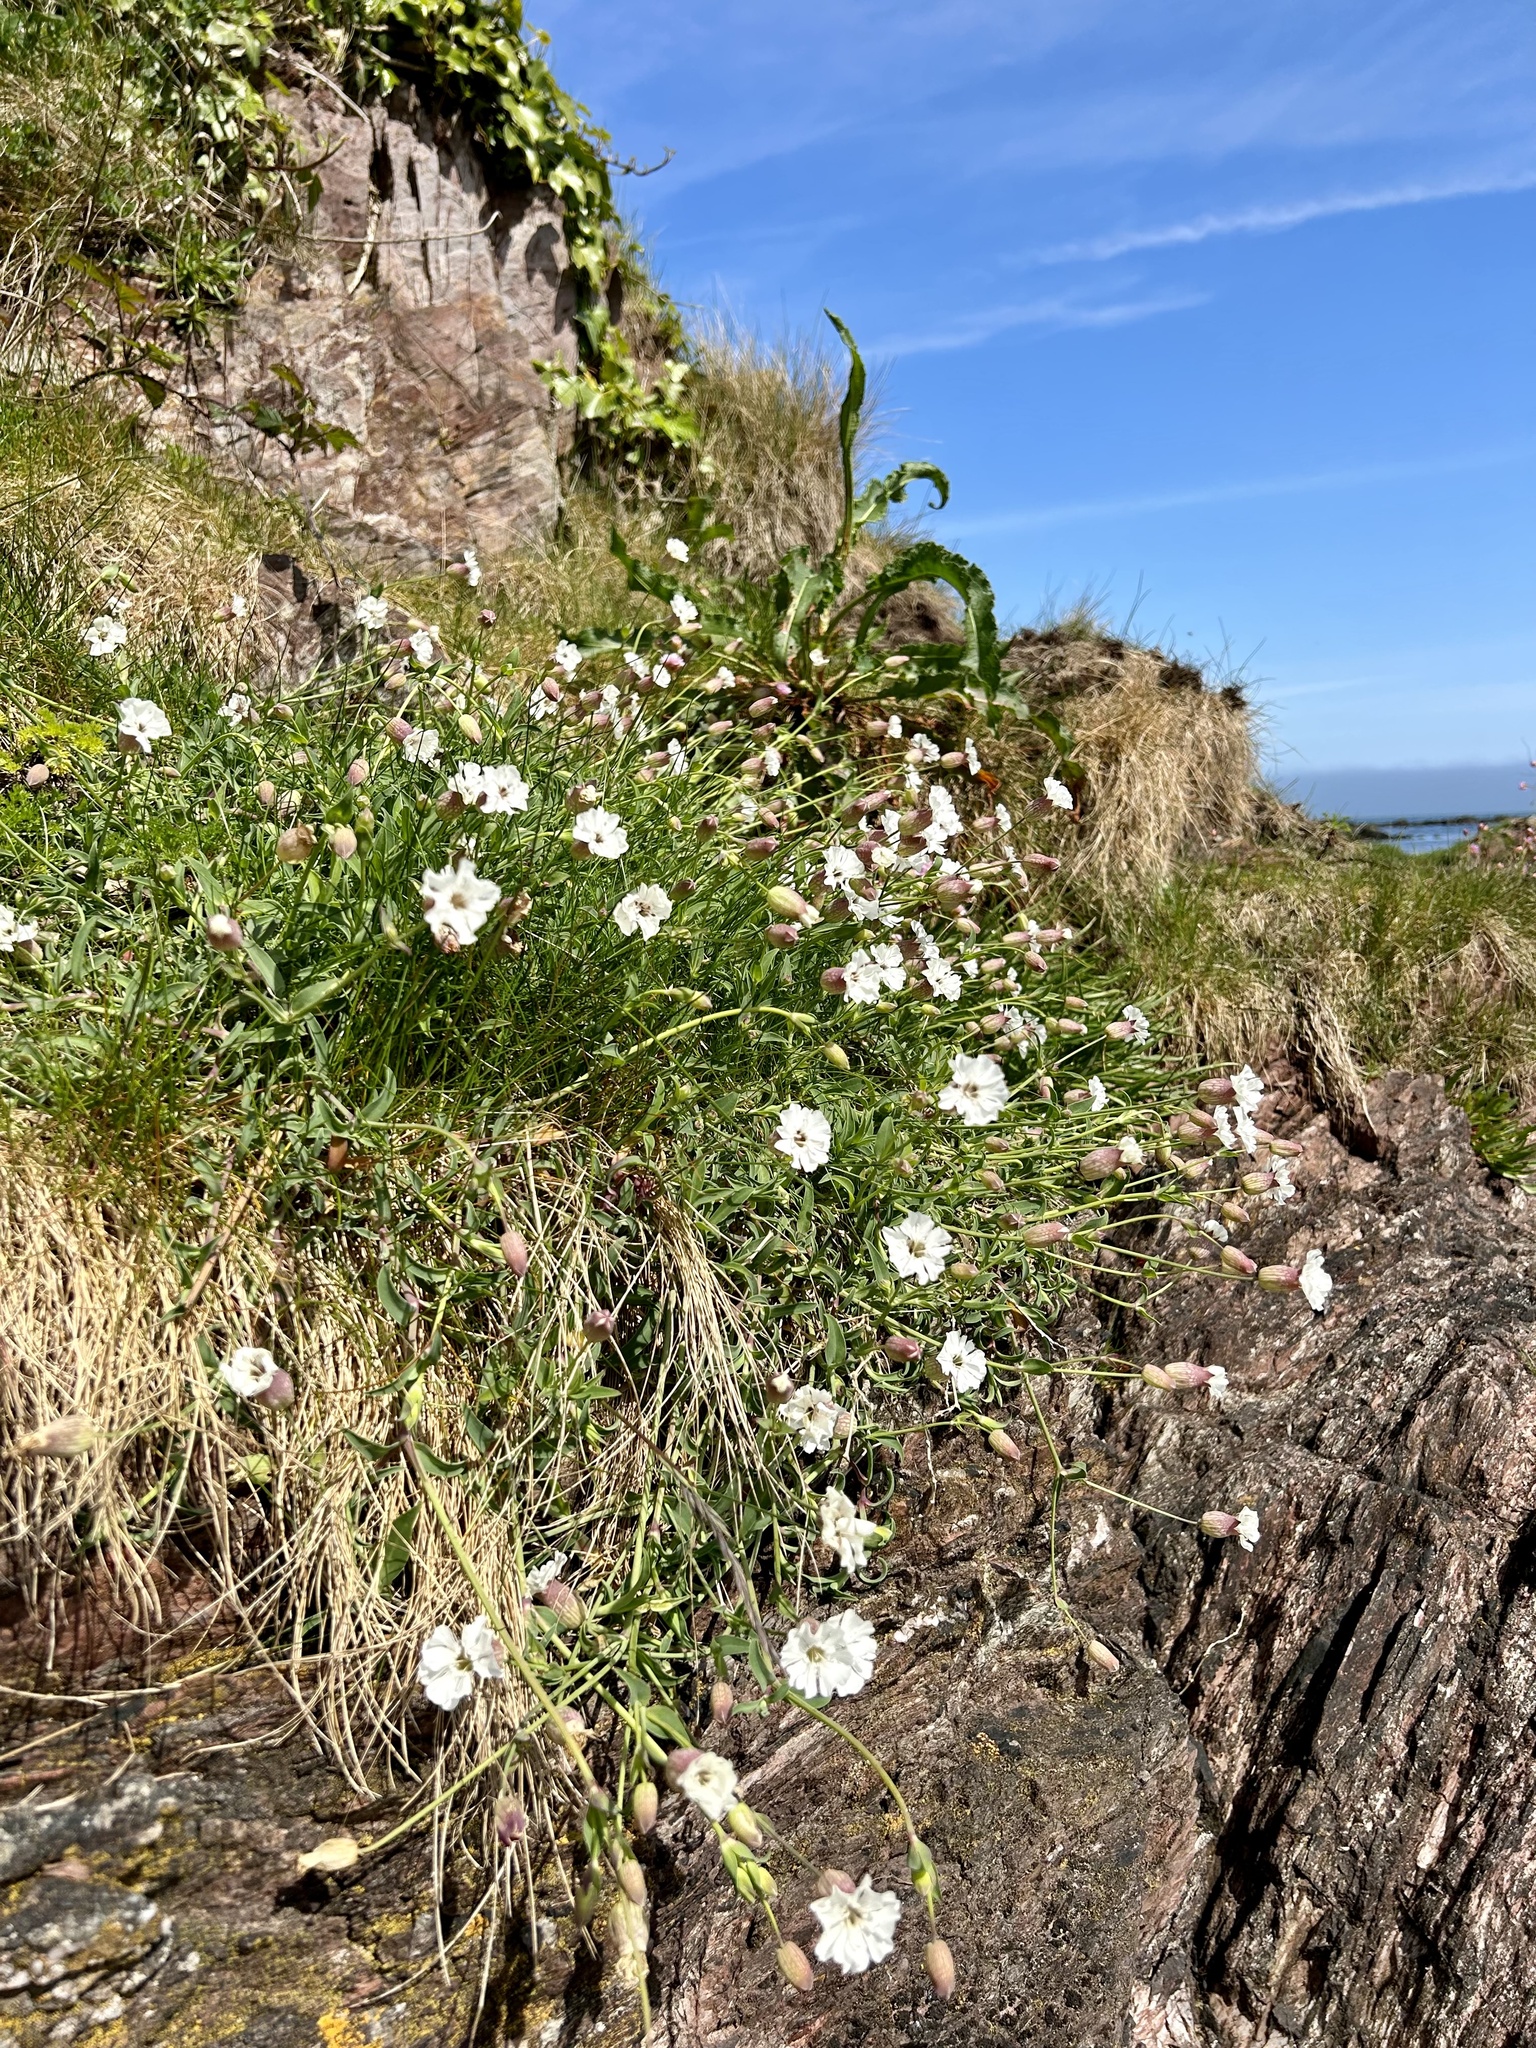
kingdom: Plantae
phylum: Tracheophyta
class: Magnoliopsida
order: Caryophyllales
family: Caryophyllaceae
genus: Silene
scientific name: Silene uniflora
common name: Sea campion
